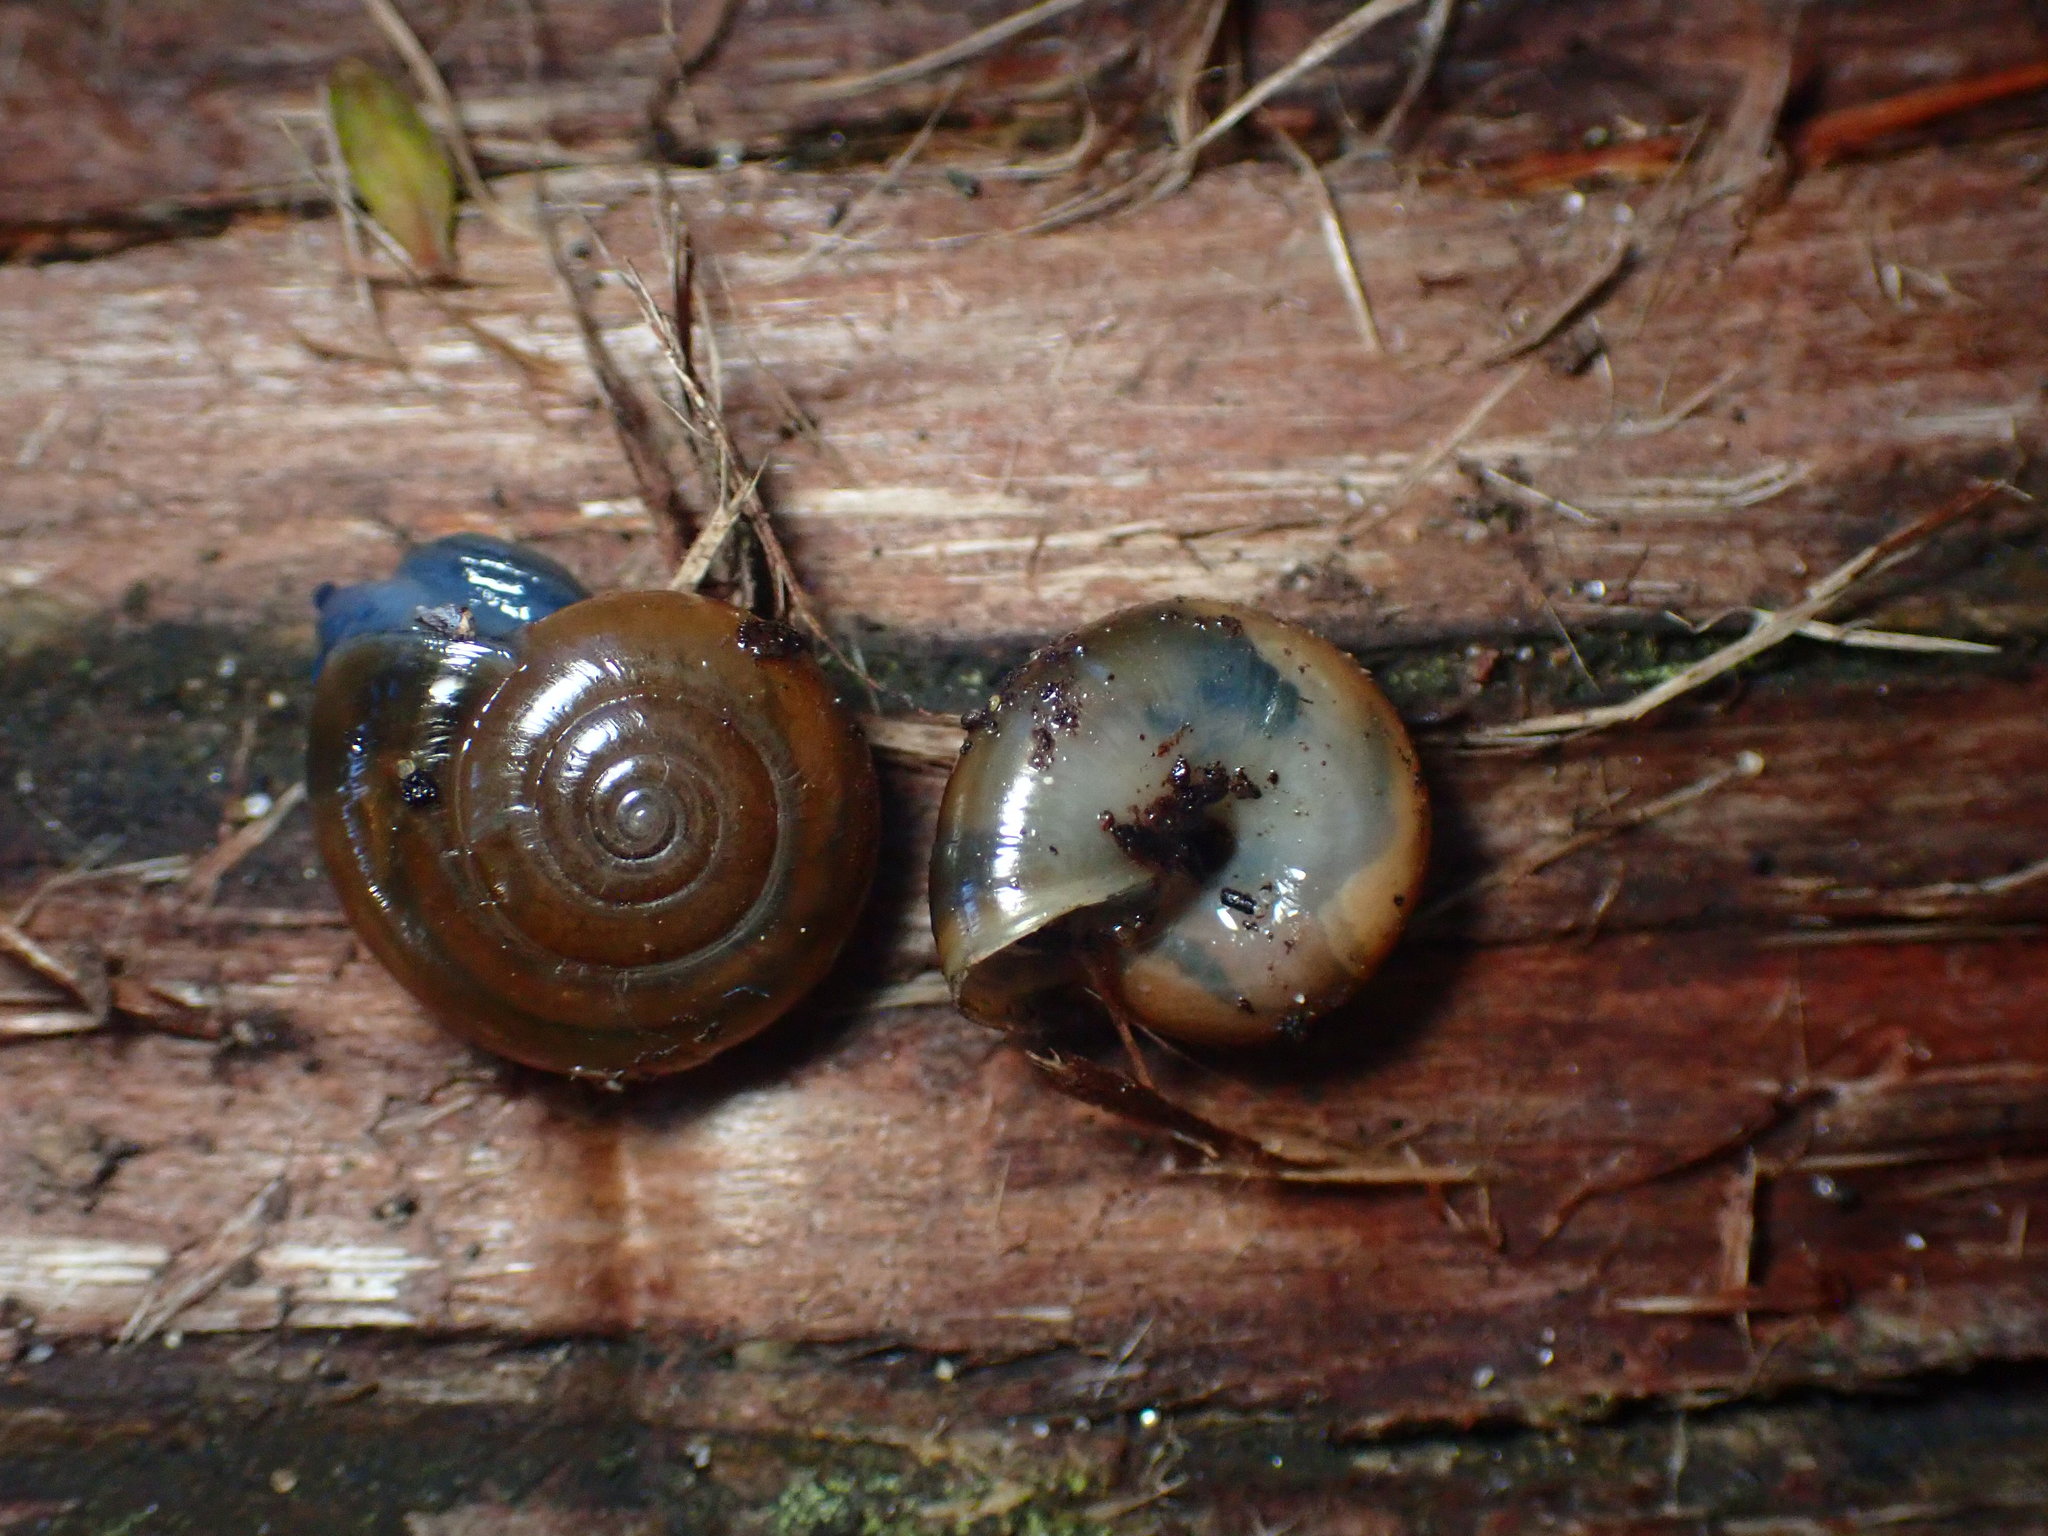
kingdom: Animalia
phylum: Mollusca
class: Gastropoda
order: Stylommatophora
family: Oxychilidae
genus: Oxychilus
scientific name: Oxychilus draparnaudi
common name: Draparnaud's glass snail
